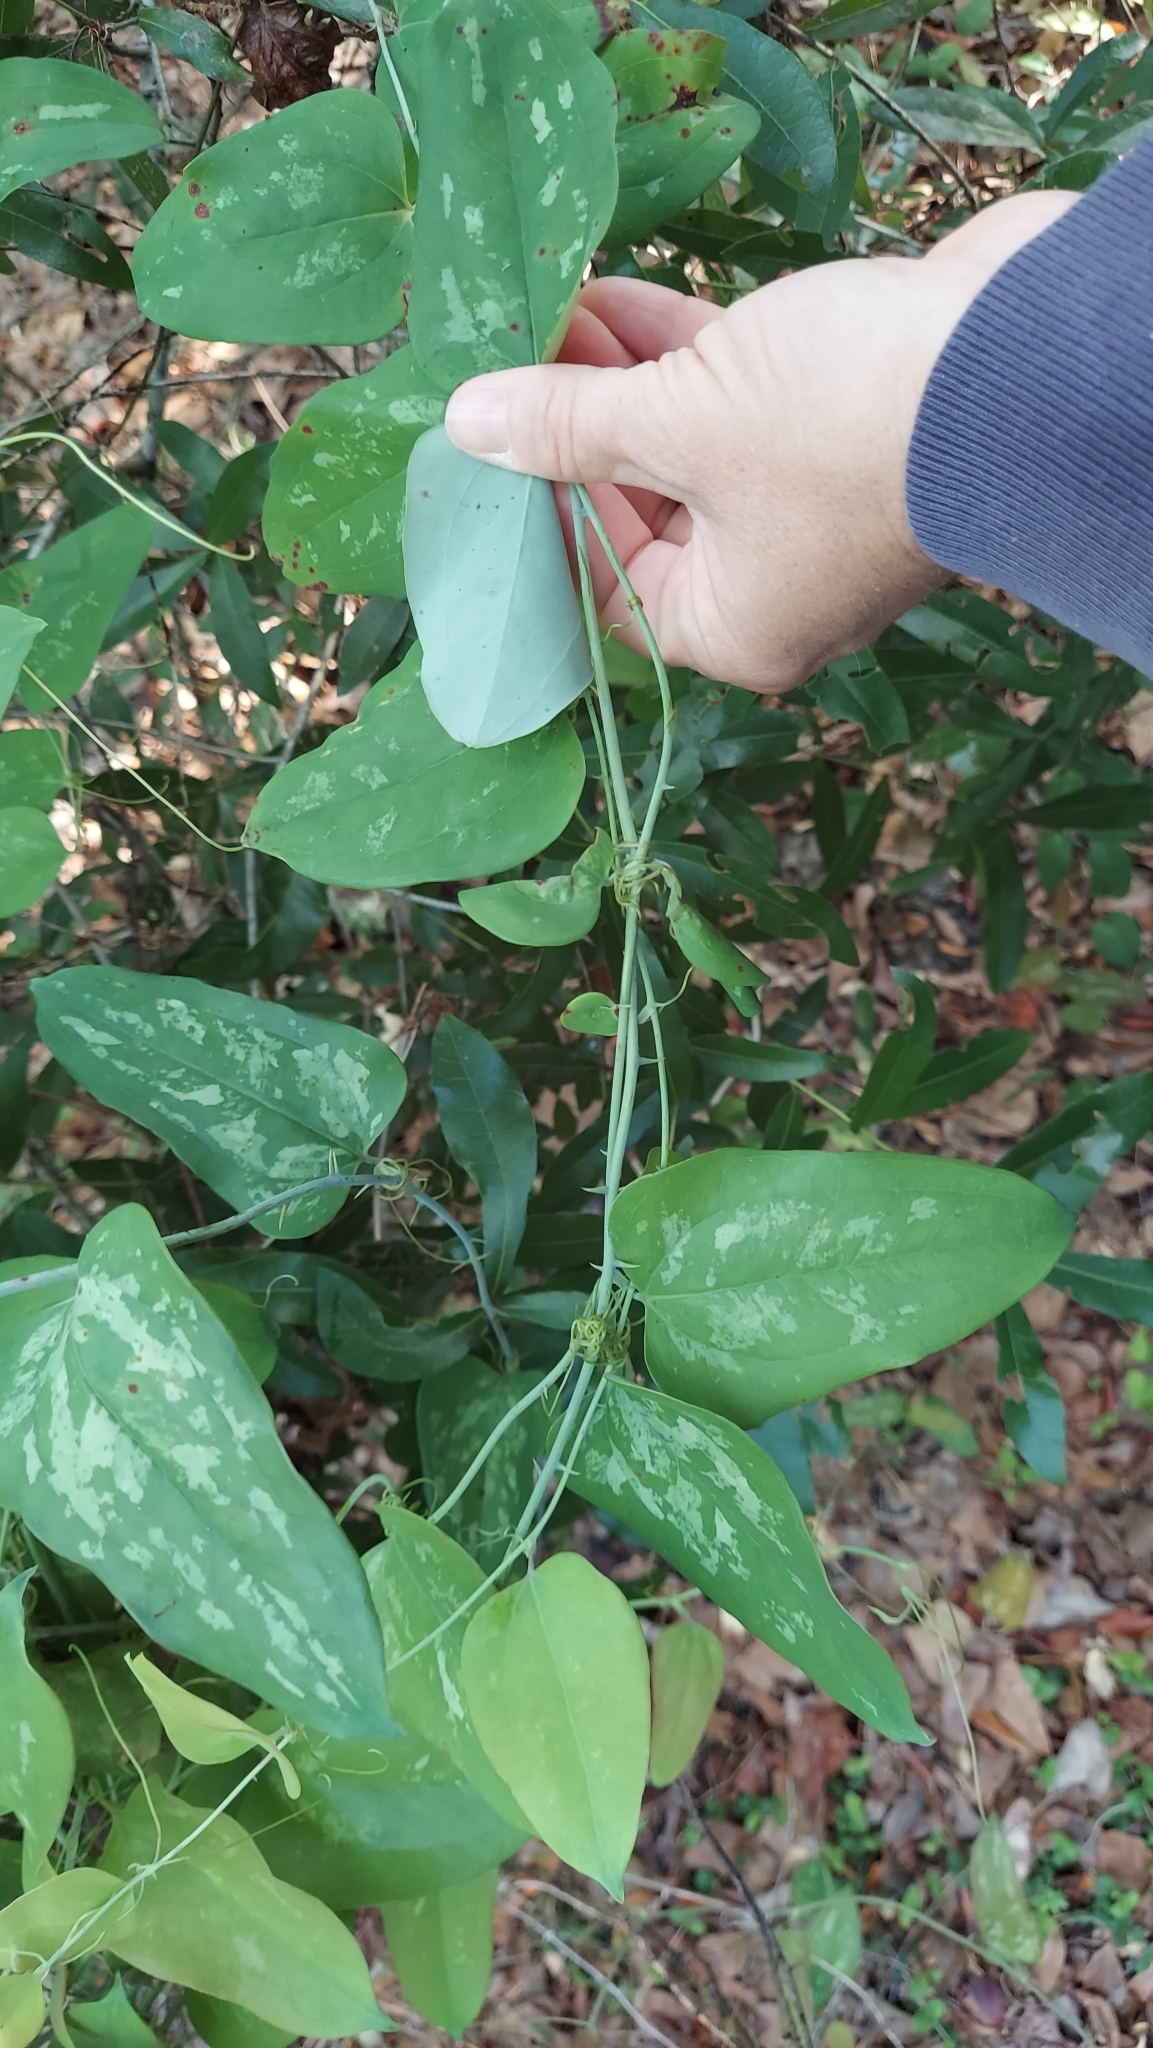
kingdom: Plantae
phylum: Tracheophyta
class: Liliopsida
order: Liliales
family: Smilacaceae
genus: Smilax
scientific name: Smilax glauca
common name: Cat greenbrier
